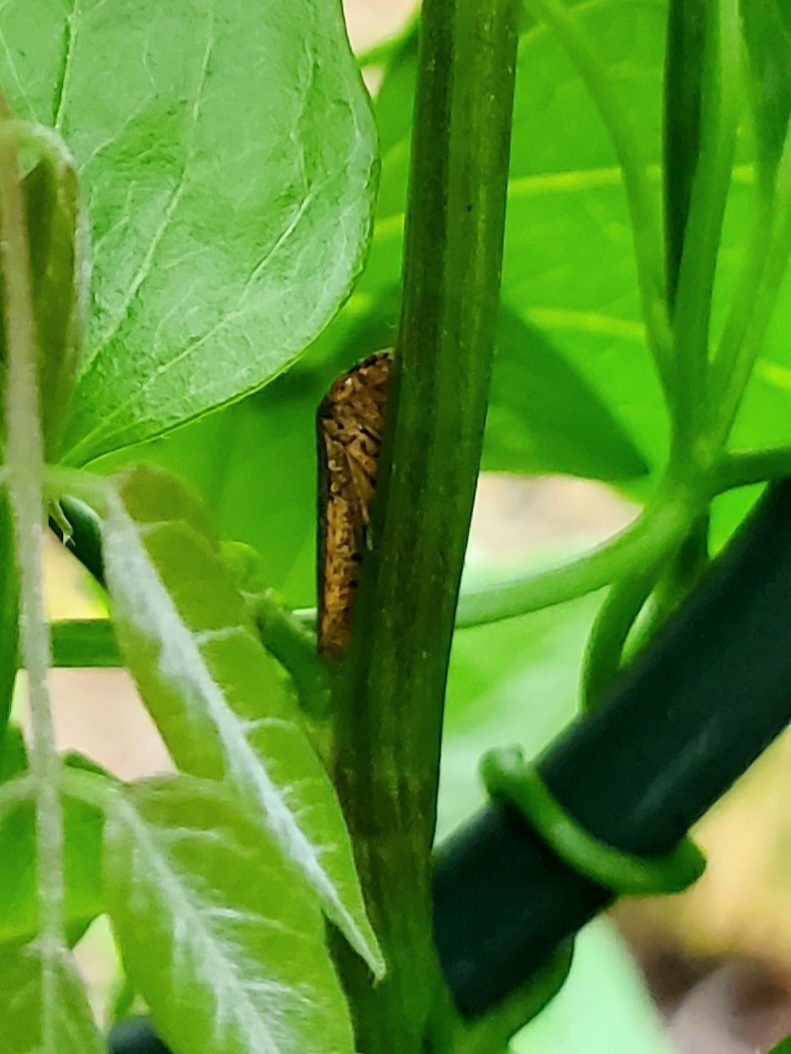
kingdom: Animalia
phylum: Arthropoda
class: Insecta
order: Hemiptera
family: Cicadellidae
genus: Oncometopia
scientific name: Oncometopia orbona
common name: Broad-headed sharpshooter
